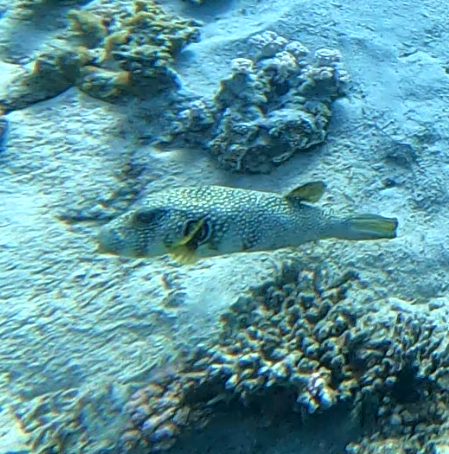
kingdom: Animalia
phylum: Chordata
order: Tetraodontiformes
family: Tetraodontidae
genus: Arothron
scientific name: Arothron hispidus
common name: Stripebelly puffer
